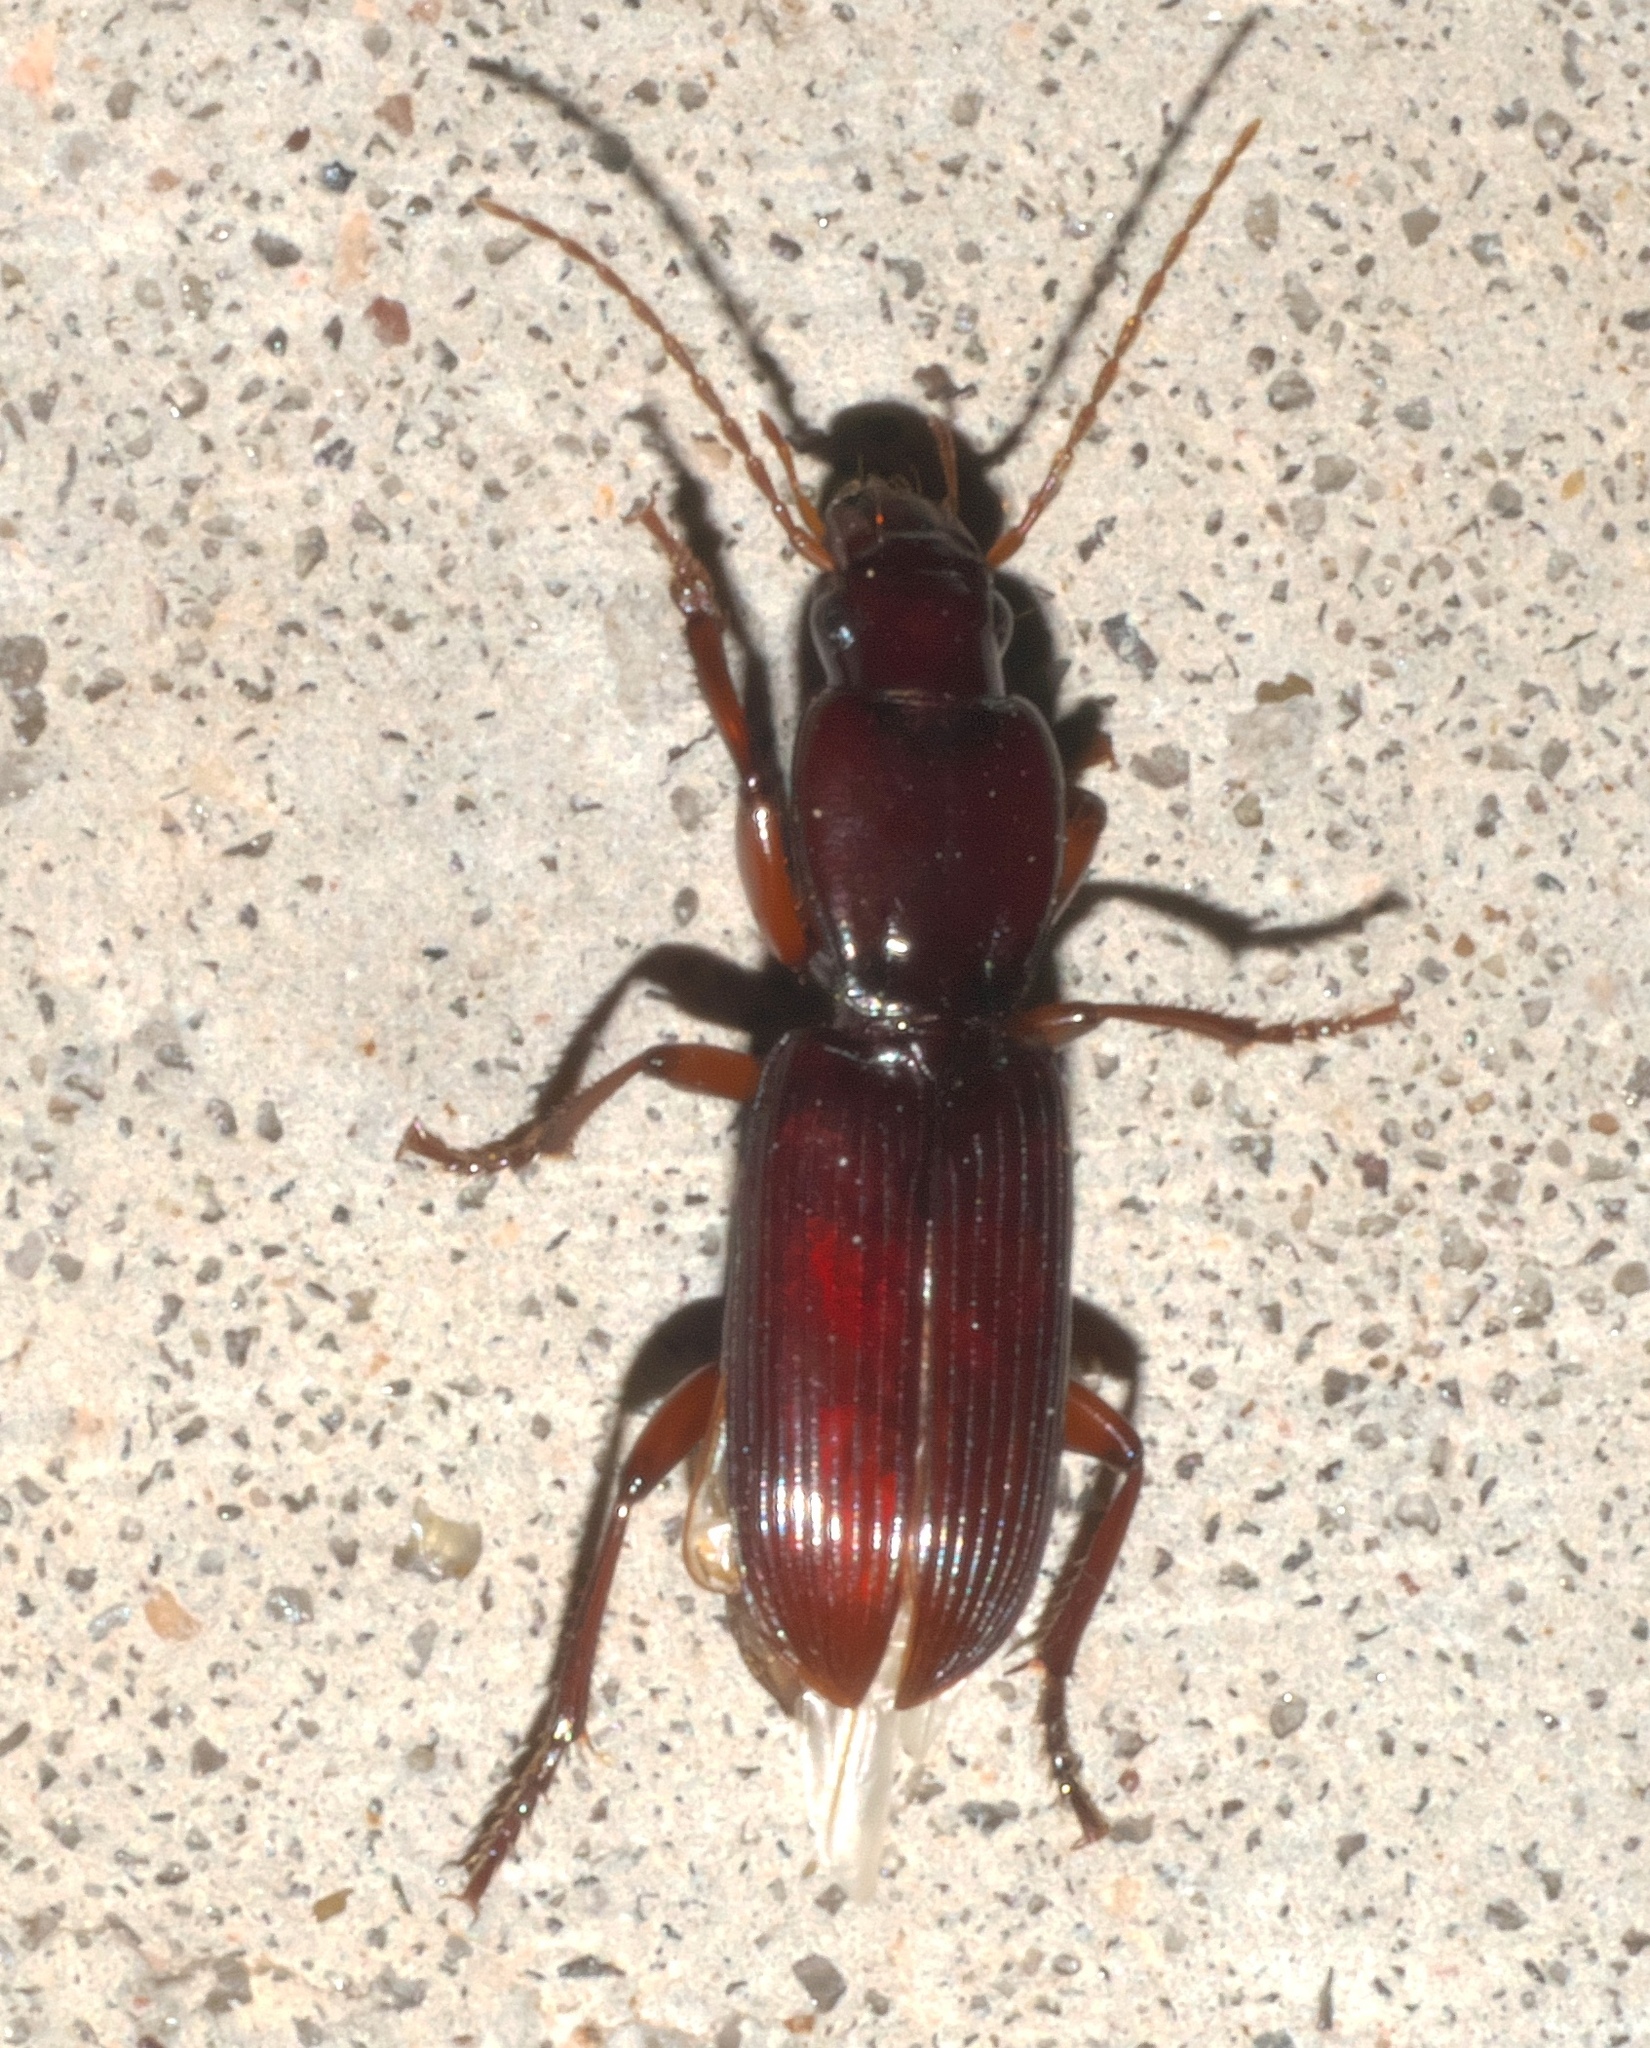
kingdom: Animalia
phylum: Arthropoda
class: Insecta
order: Coleoptera
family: Carabidae
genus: Stenomorphus
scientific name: Stenomorphus californicus
